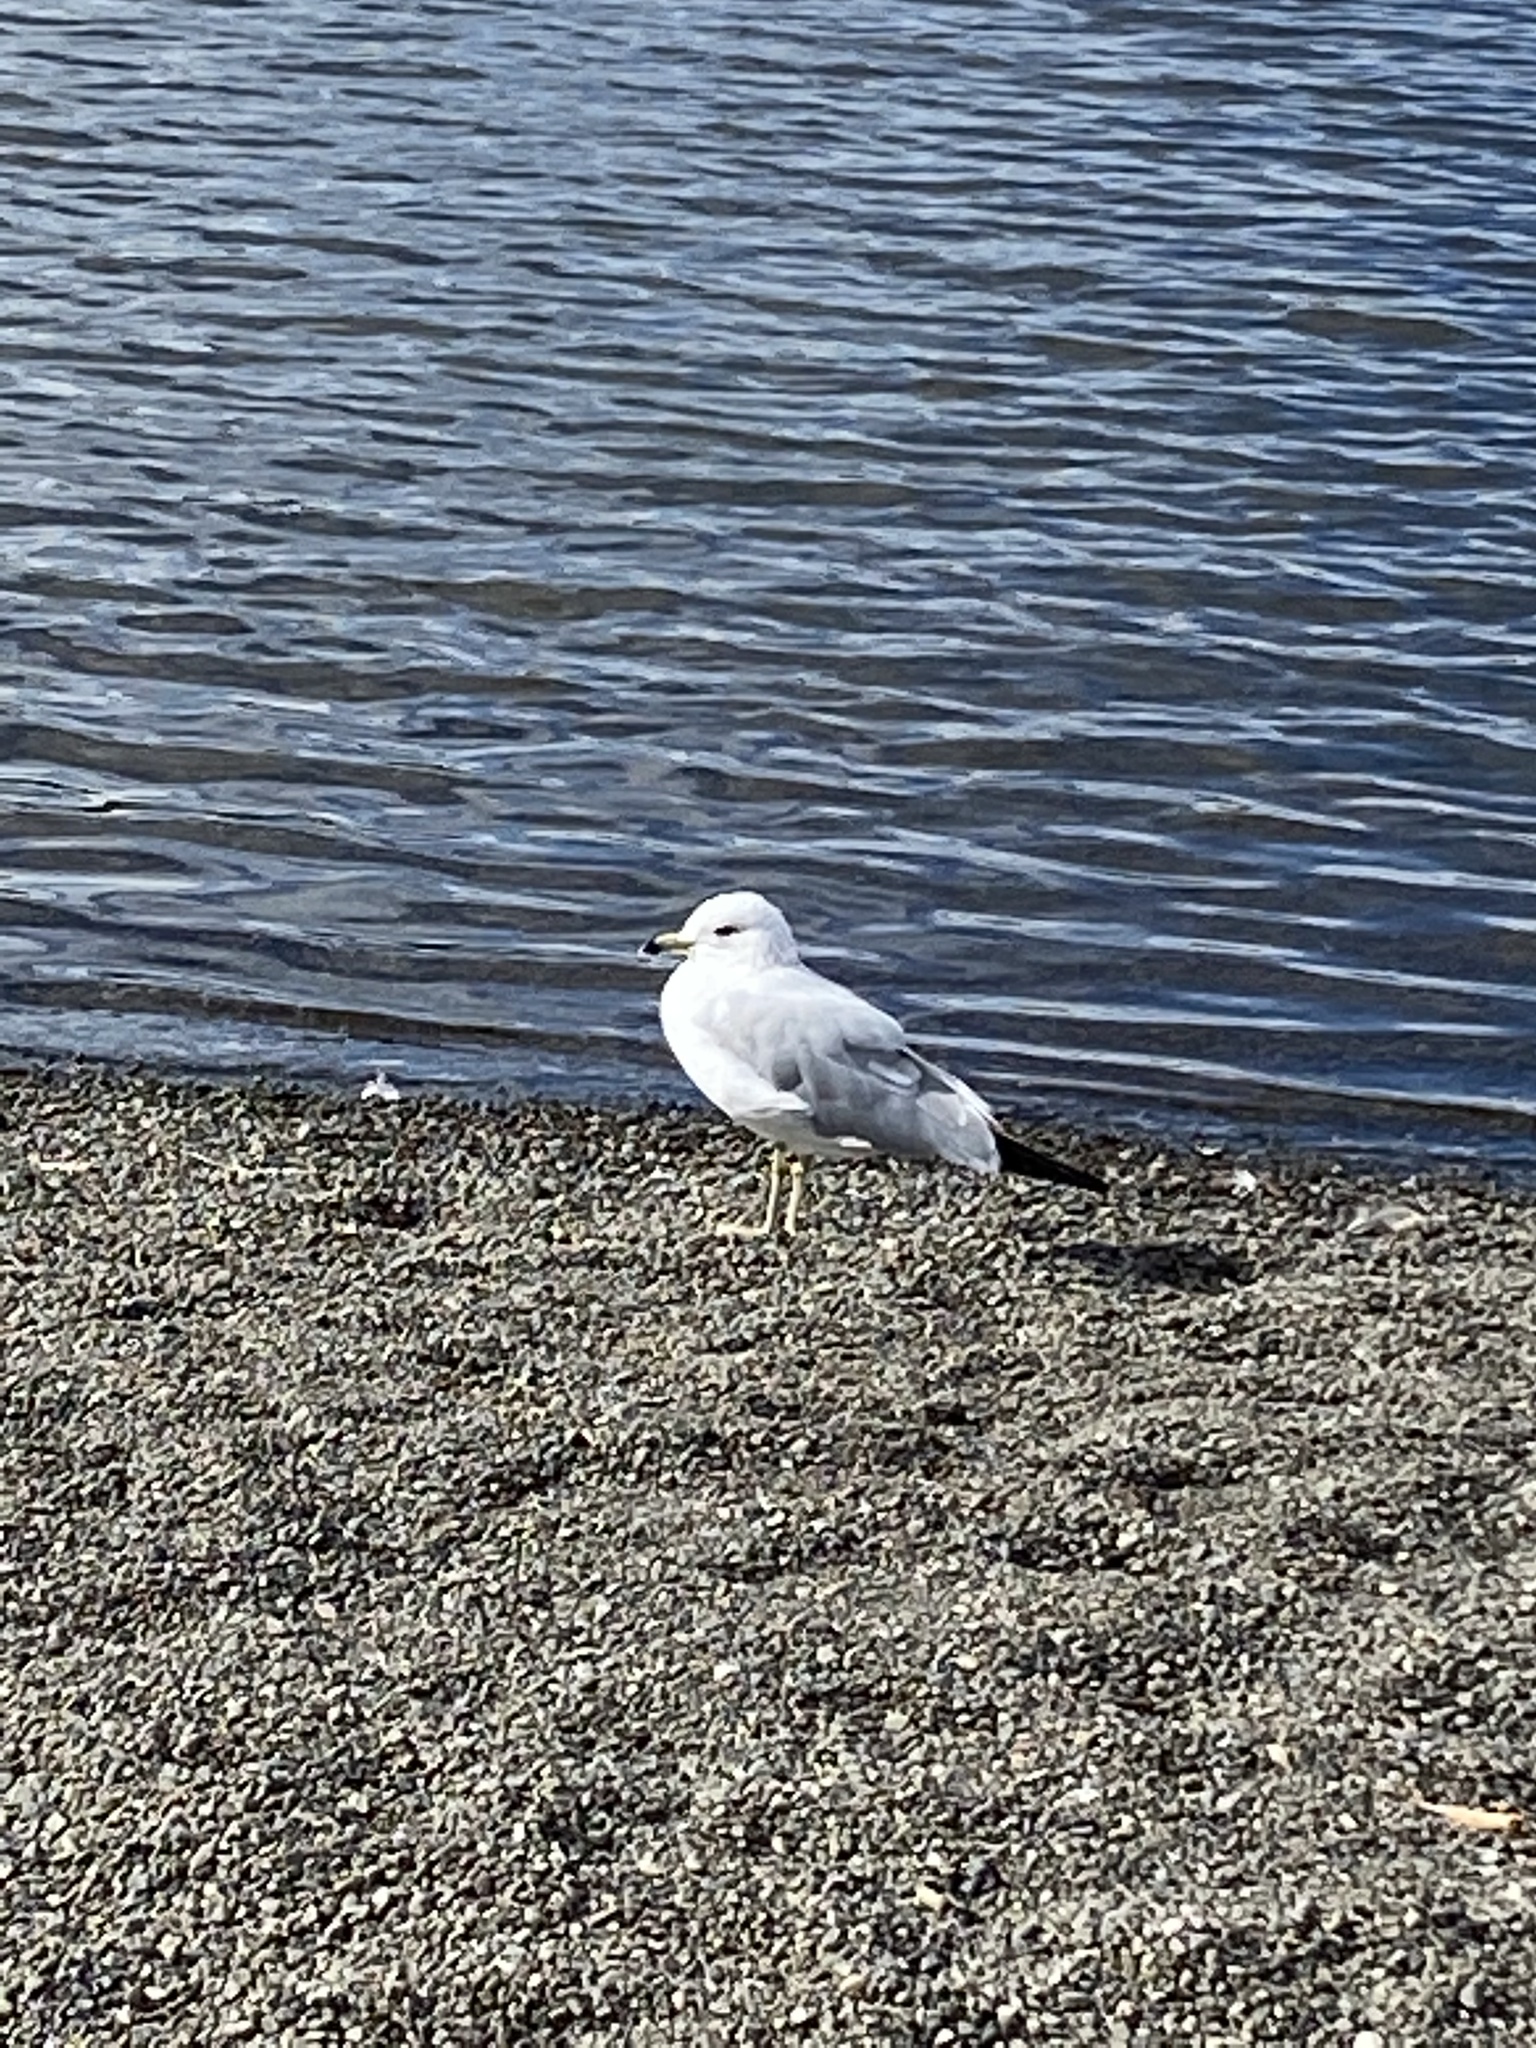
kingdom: Animalia
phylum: Chordata
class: Aves
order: Charadriiformes
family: Laridae
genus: Larus
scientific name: Larus delawarensis
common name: Ring-billed gull
